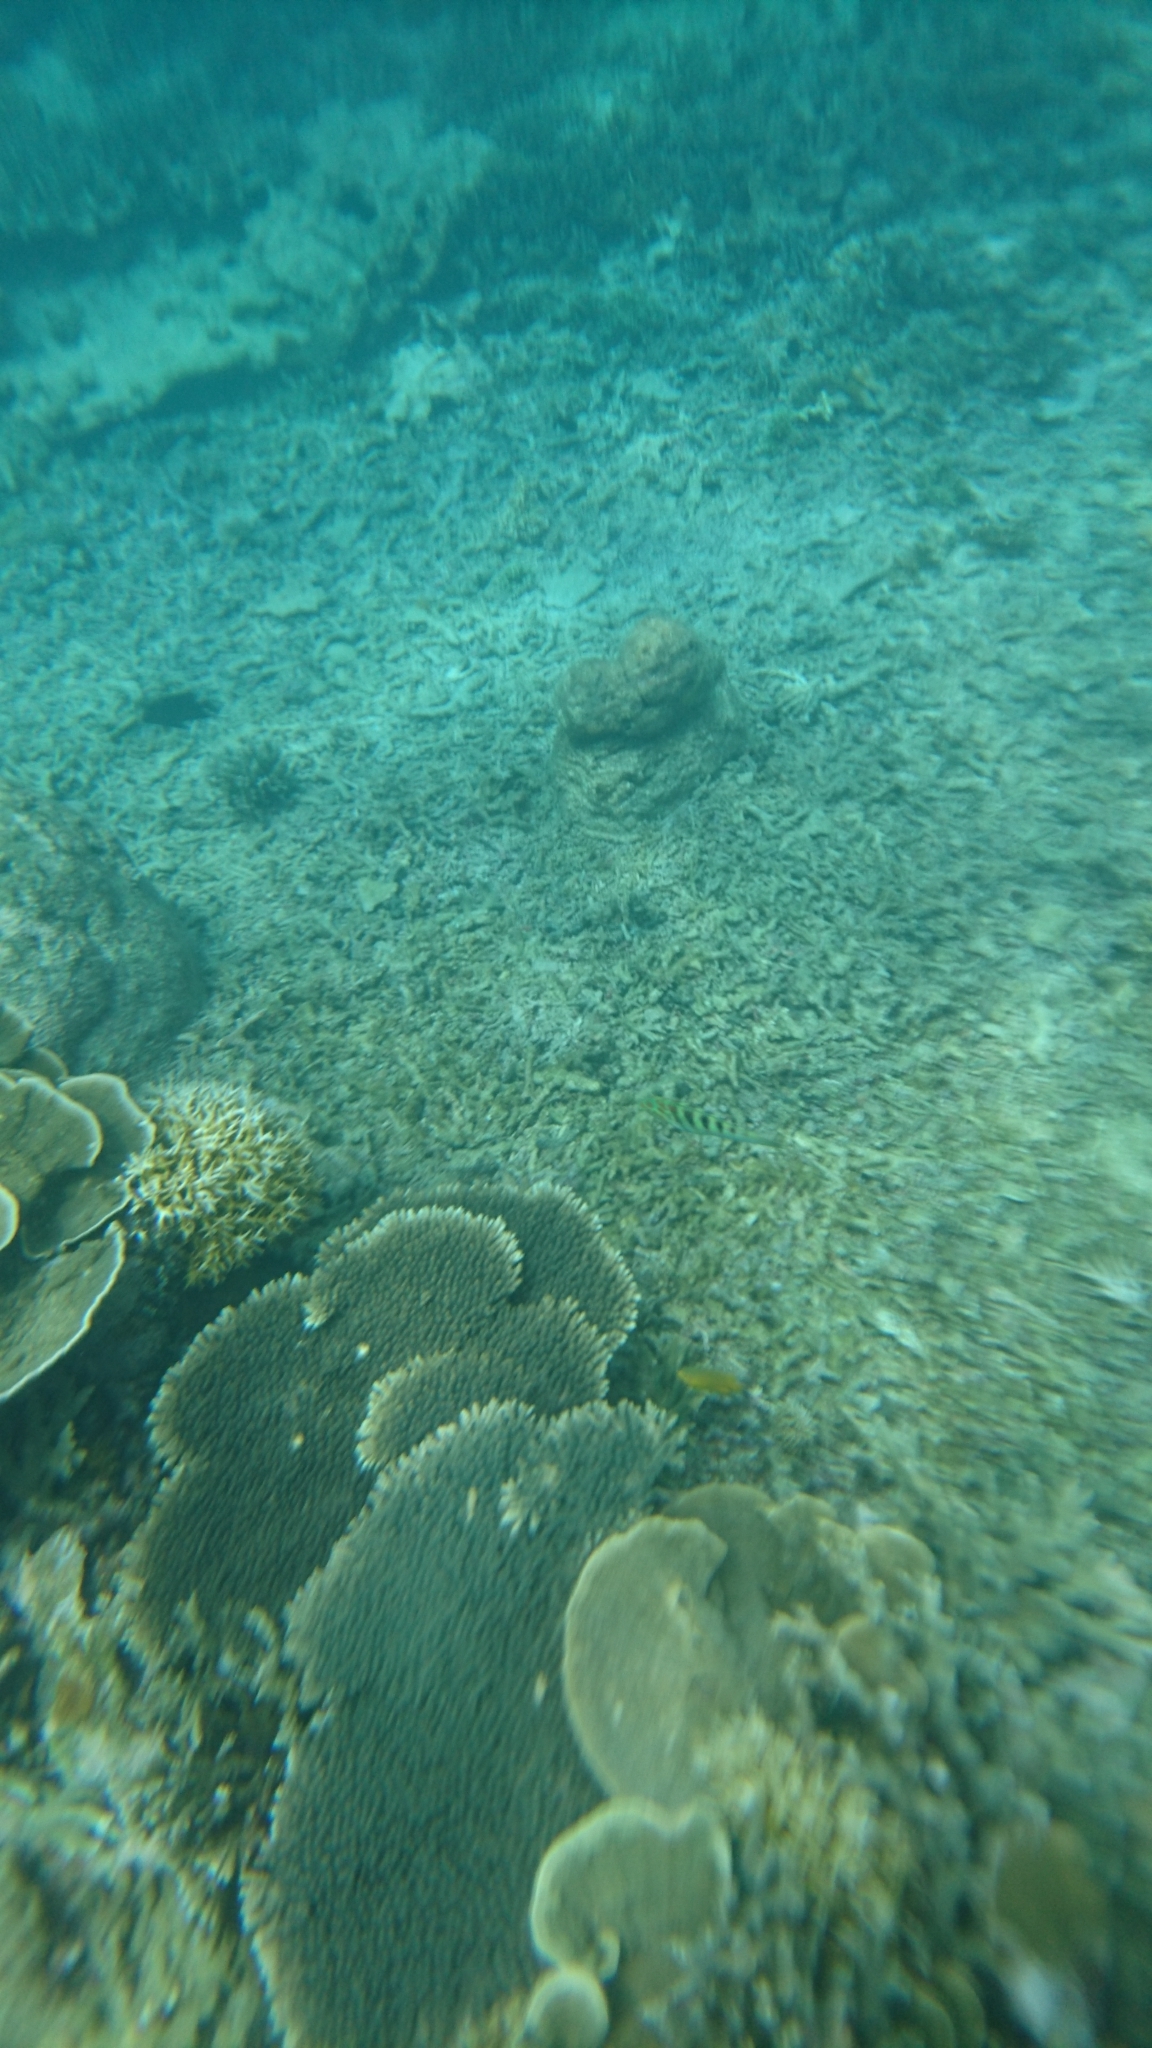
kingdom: Animalia
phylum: Chordata
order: Perciformes
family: Labridae
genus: Thalassoma
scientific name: Thalassoma hardwicke
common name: Sixbar wrasse
